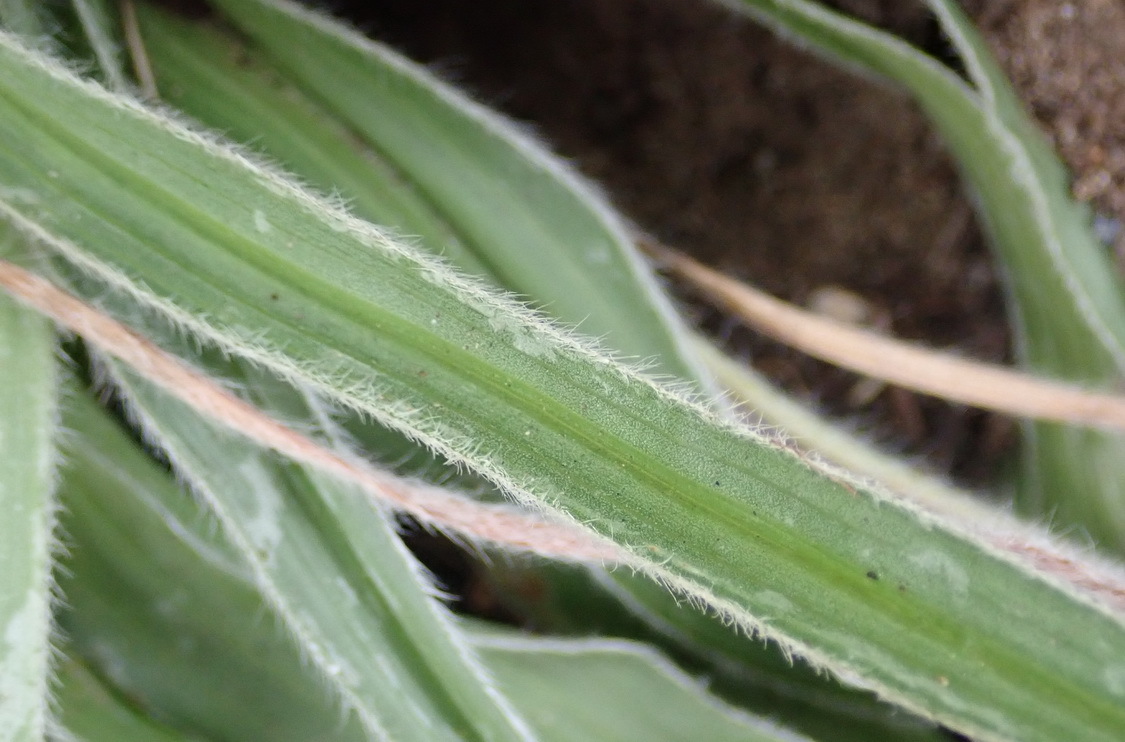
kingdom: Plantae
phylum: Tracheophyta
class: Liliopsida
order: Asparagales
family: Hypoxidaceae
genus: Hypoxis
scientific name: Hypoxis villosa
